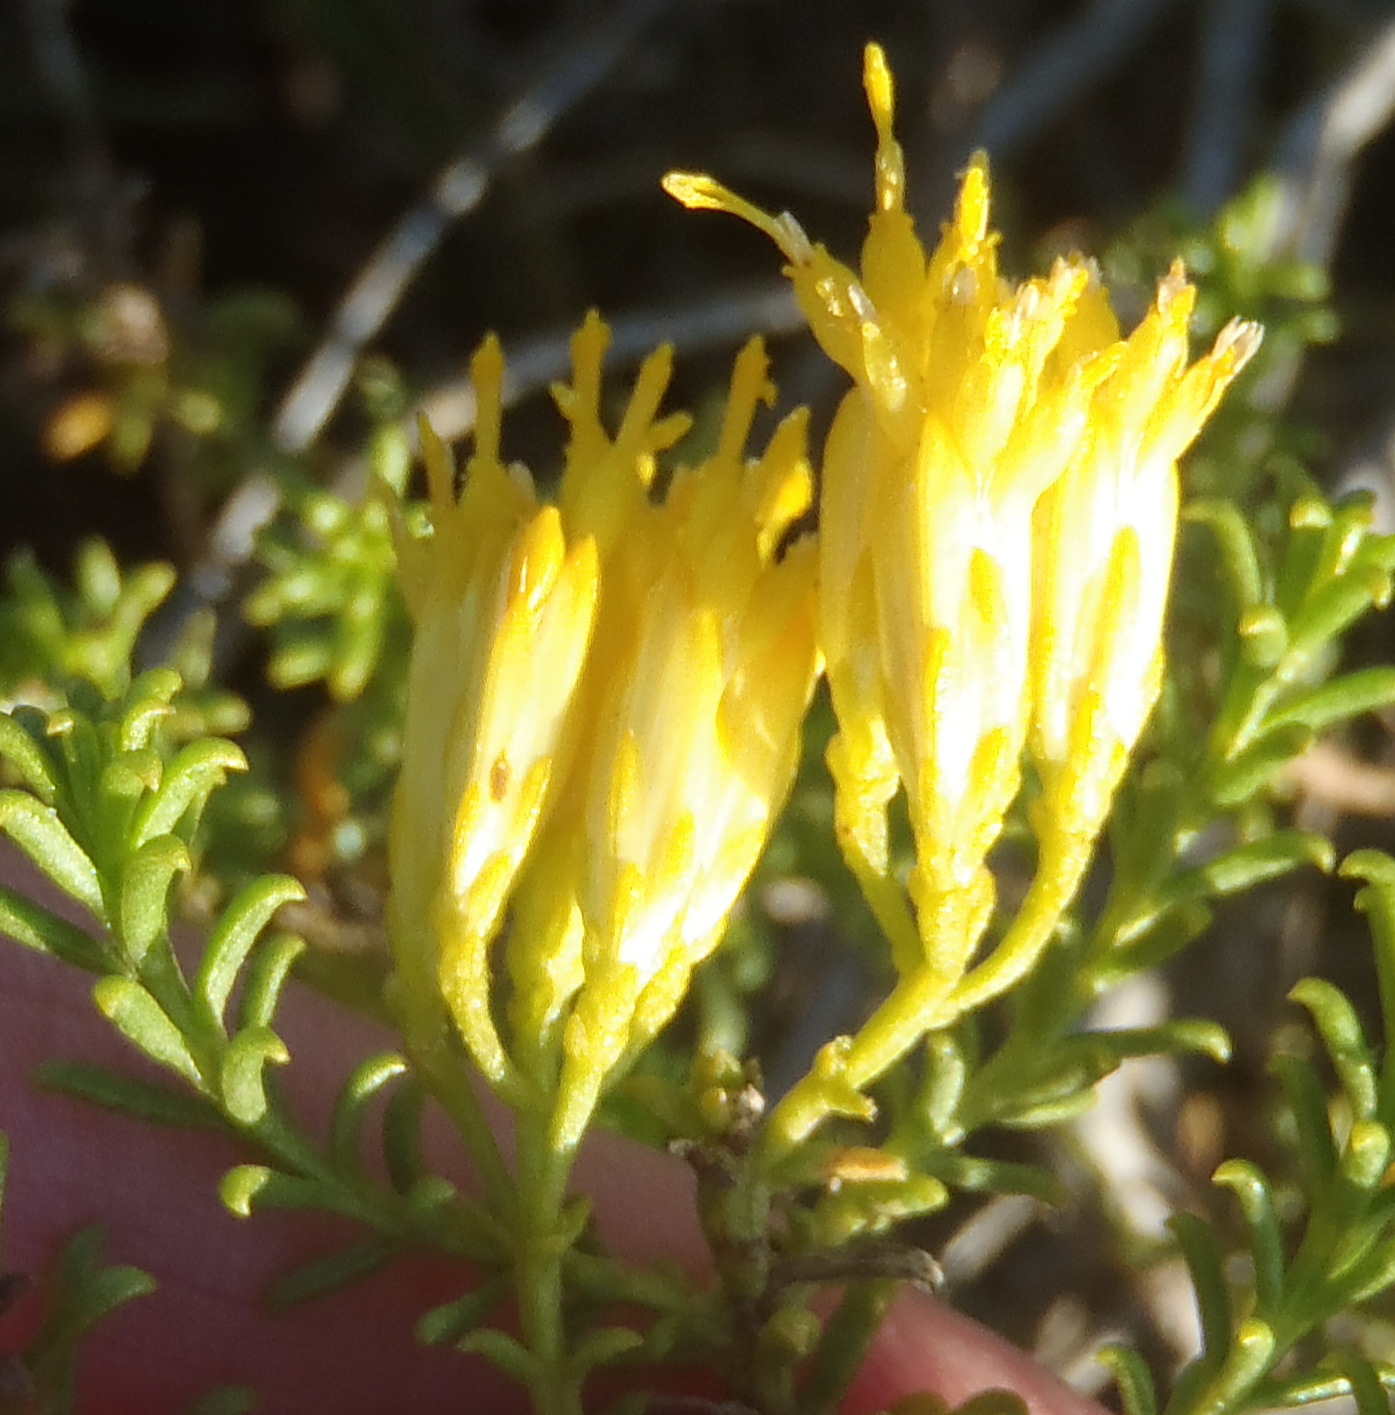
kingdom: Plantae
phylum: Tracheophyta
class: Magnoliopsida
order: Asterales
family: Asteraceae
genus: Pteronia
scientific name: Pteronia uncinata
